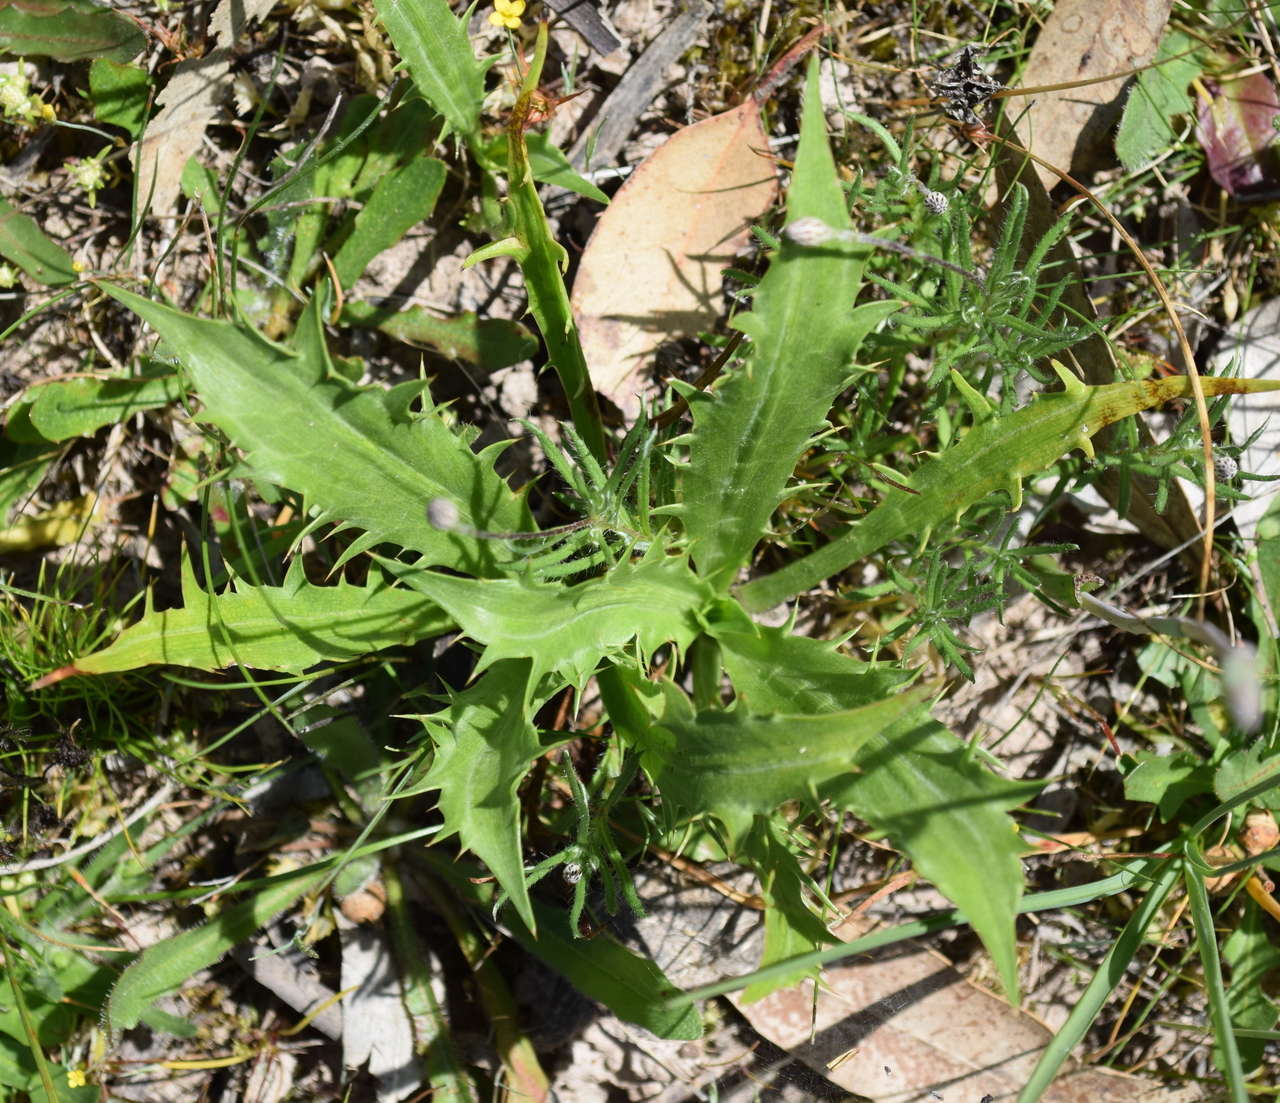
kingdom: Plantae
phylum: Tracheophyta
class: Magnoliopsida
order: Apiales
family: Apiaceae
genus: Eryngium
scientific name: Eryngium vesiculosum
